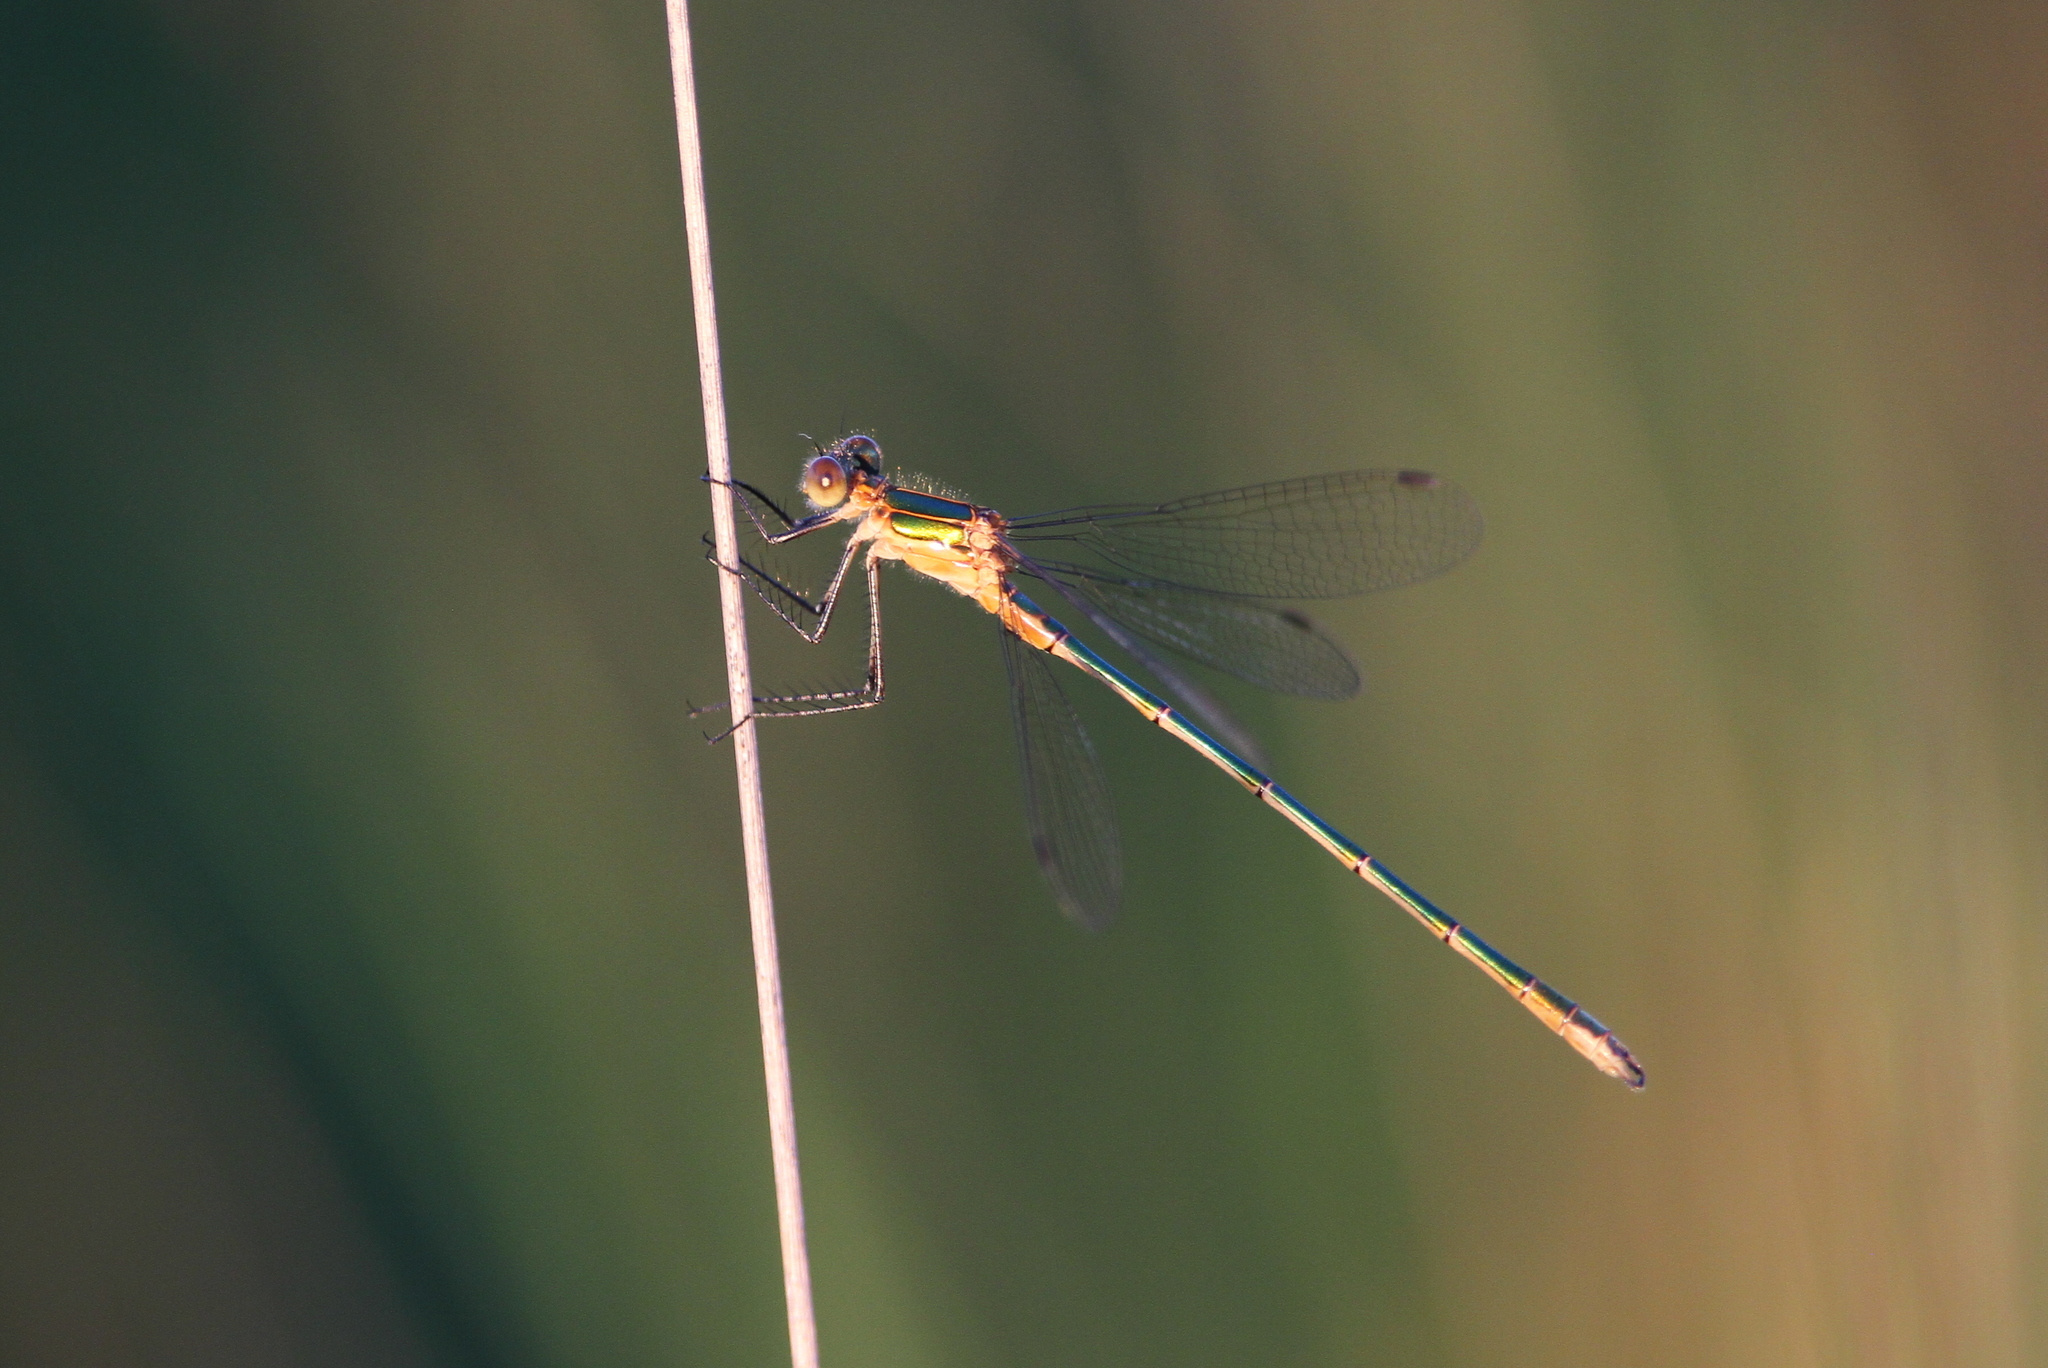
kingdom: Animalia
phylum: Arthropoda
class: Insecta
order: Odonata
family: Lestidae
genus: Lestes
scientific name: Lestes sponsa
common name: Common spreadwing
